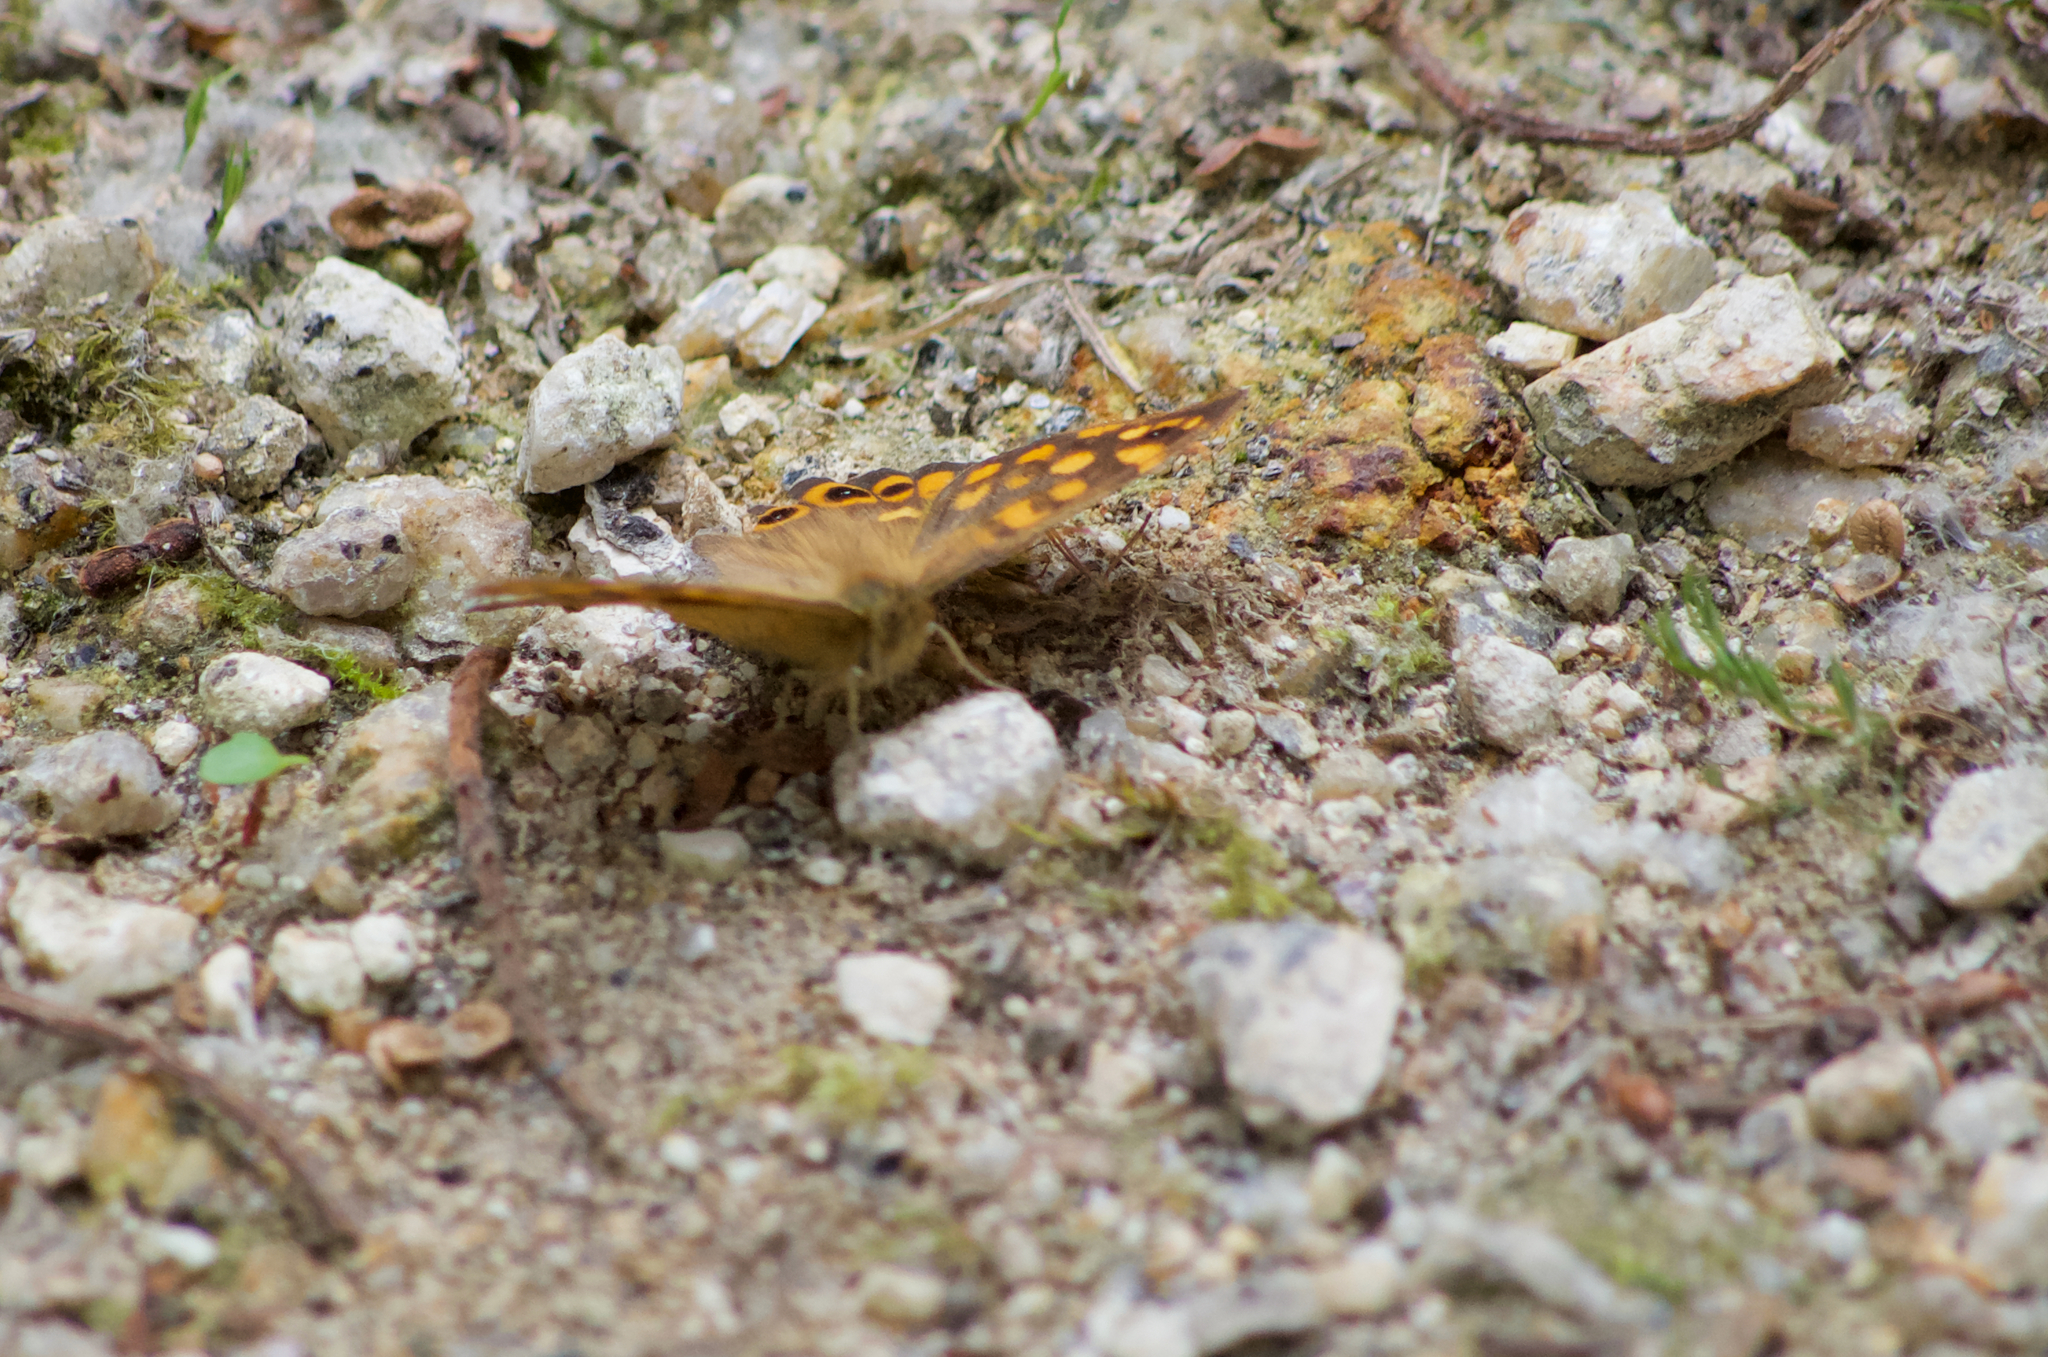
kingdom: Animalia
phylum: Arthropoda
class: Insecta
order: Lepidoptera
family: Nymphalidae
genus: Pararge
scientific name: Pararge aegeria
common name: Speckled wood
